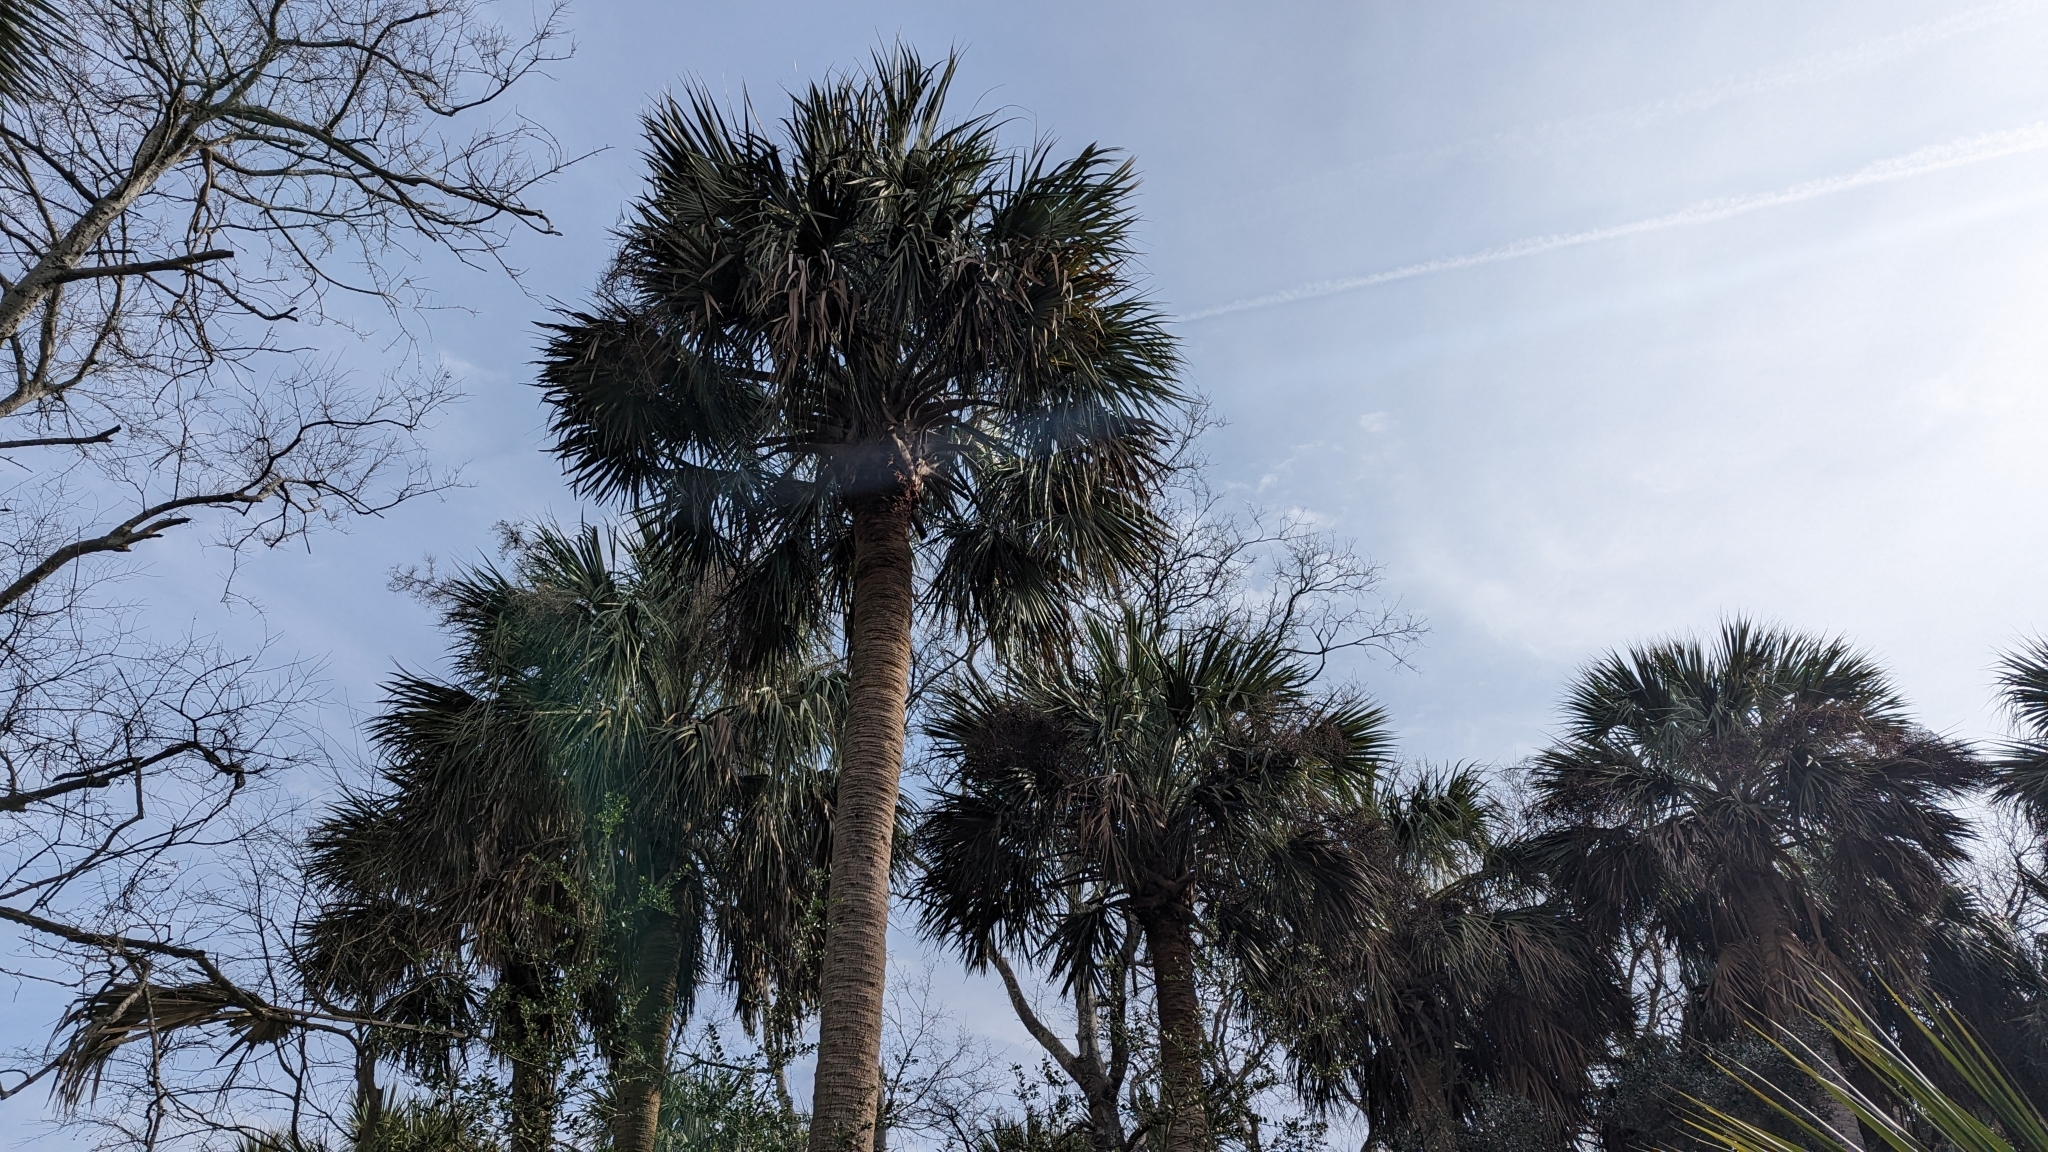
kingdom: Plantae
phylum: Tracheophyta
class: Liliopsida
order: Arecales
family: Arecaceae
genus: Sabal
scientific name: Sabal palmetto
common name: Blue palmetto
